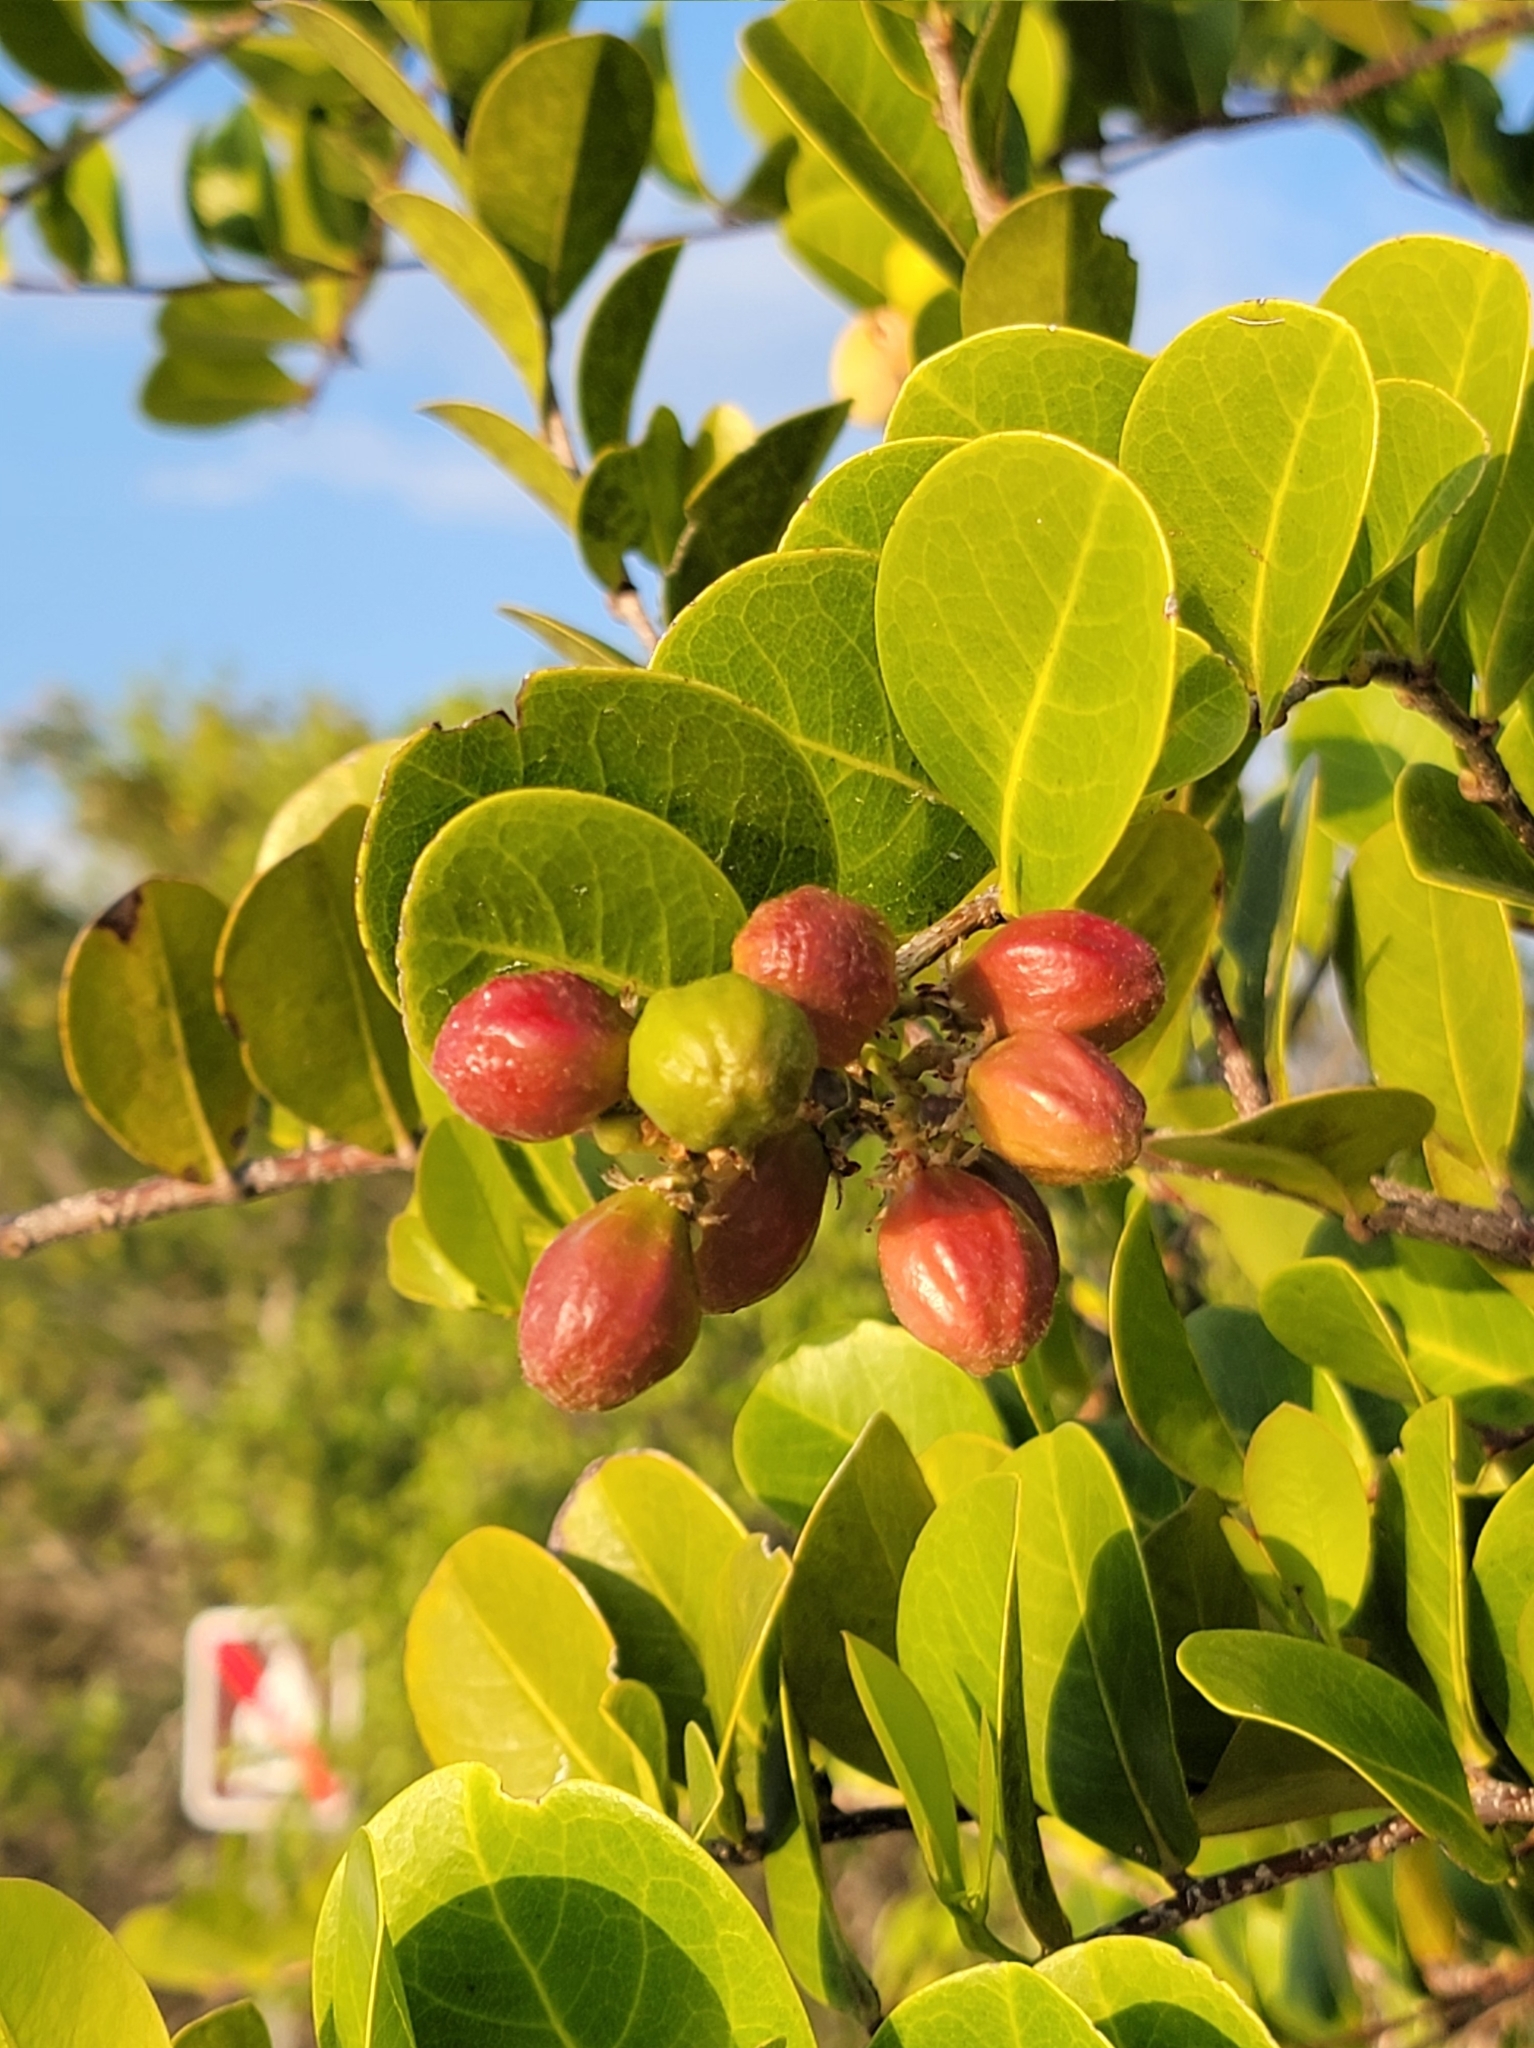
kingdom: Plantae
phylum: Tracheophyta
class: Magnoliopsida
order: Malpighiales
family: Chrysobalanaceae
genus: Chrysobalanus
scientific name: Chrysobalanus icaco
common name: Coco plum
